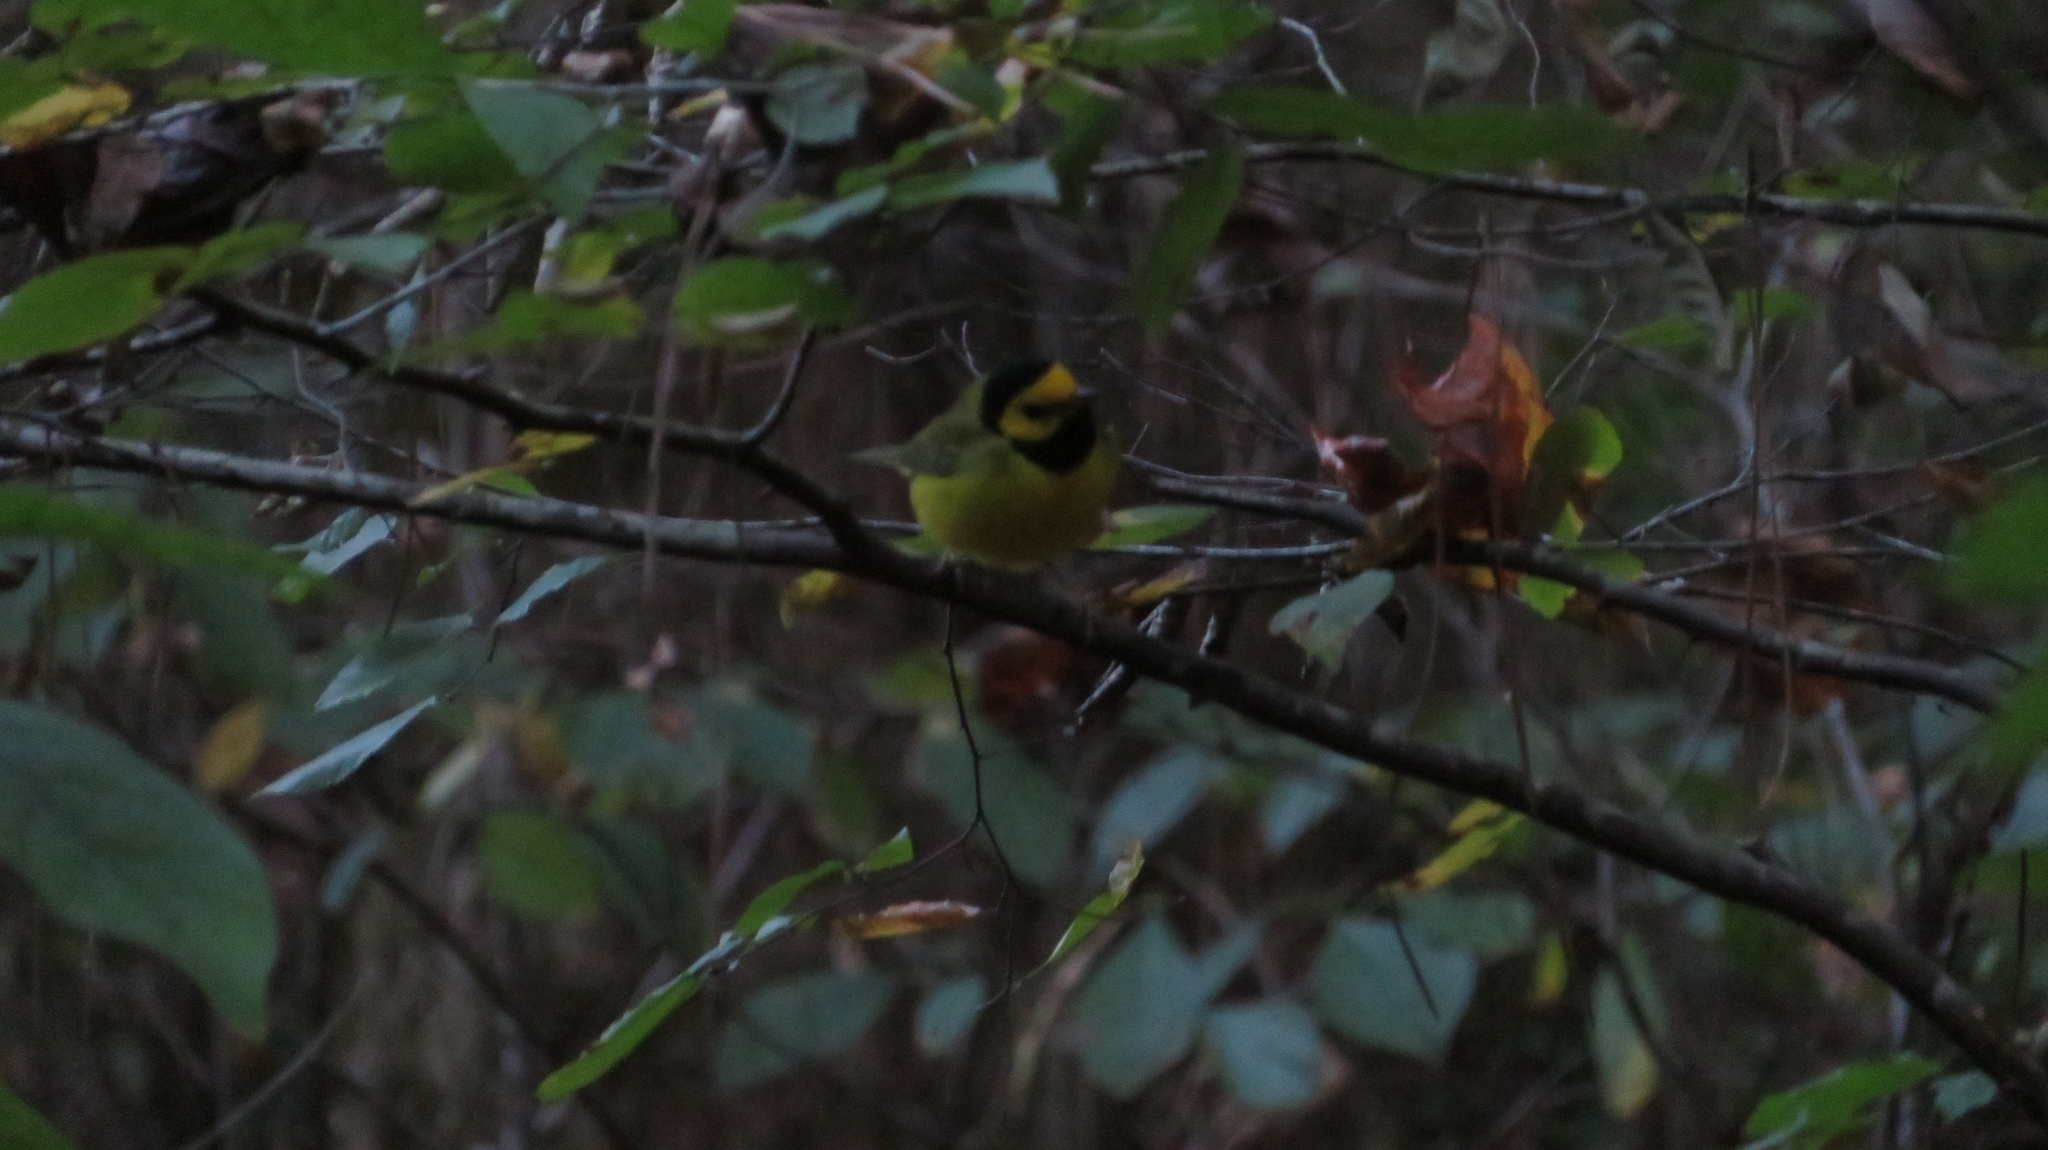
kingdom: Animalia
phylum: Chordata
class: Aves
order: Passeriformes
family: Parulidae
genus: Setophaga
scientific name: Setophaga citrina
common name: Hooded warbler
